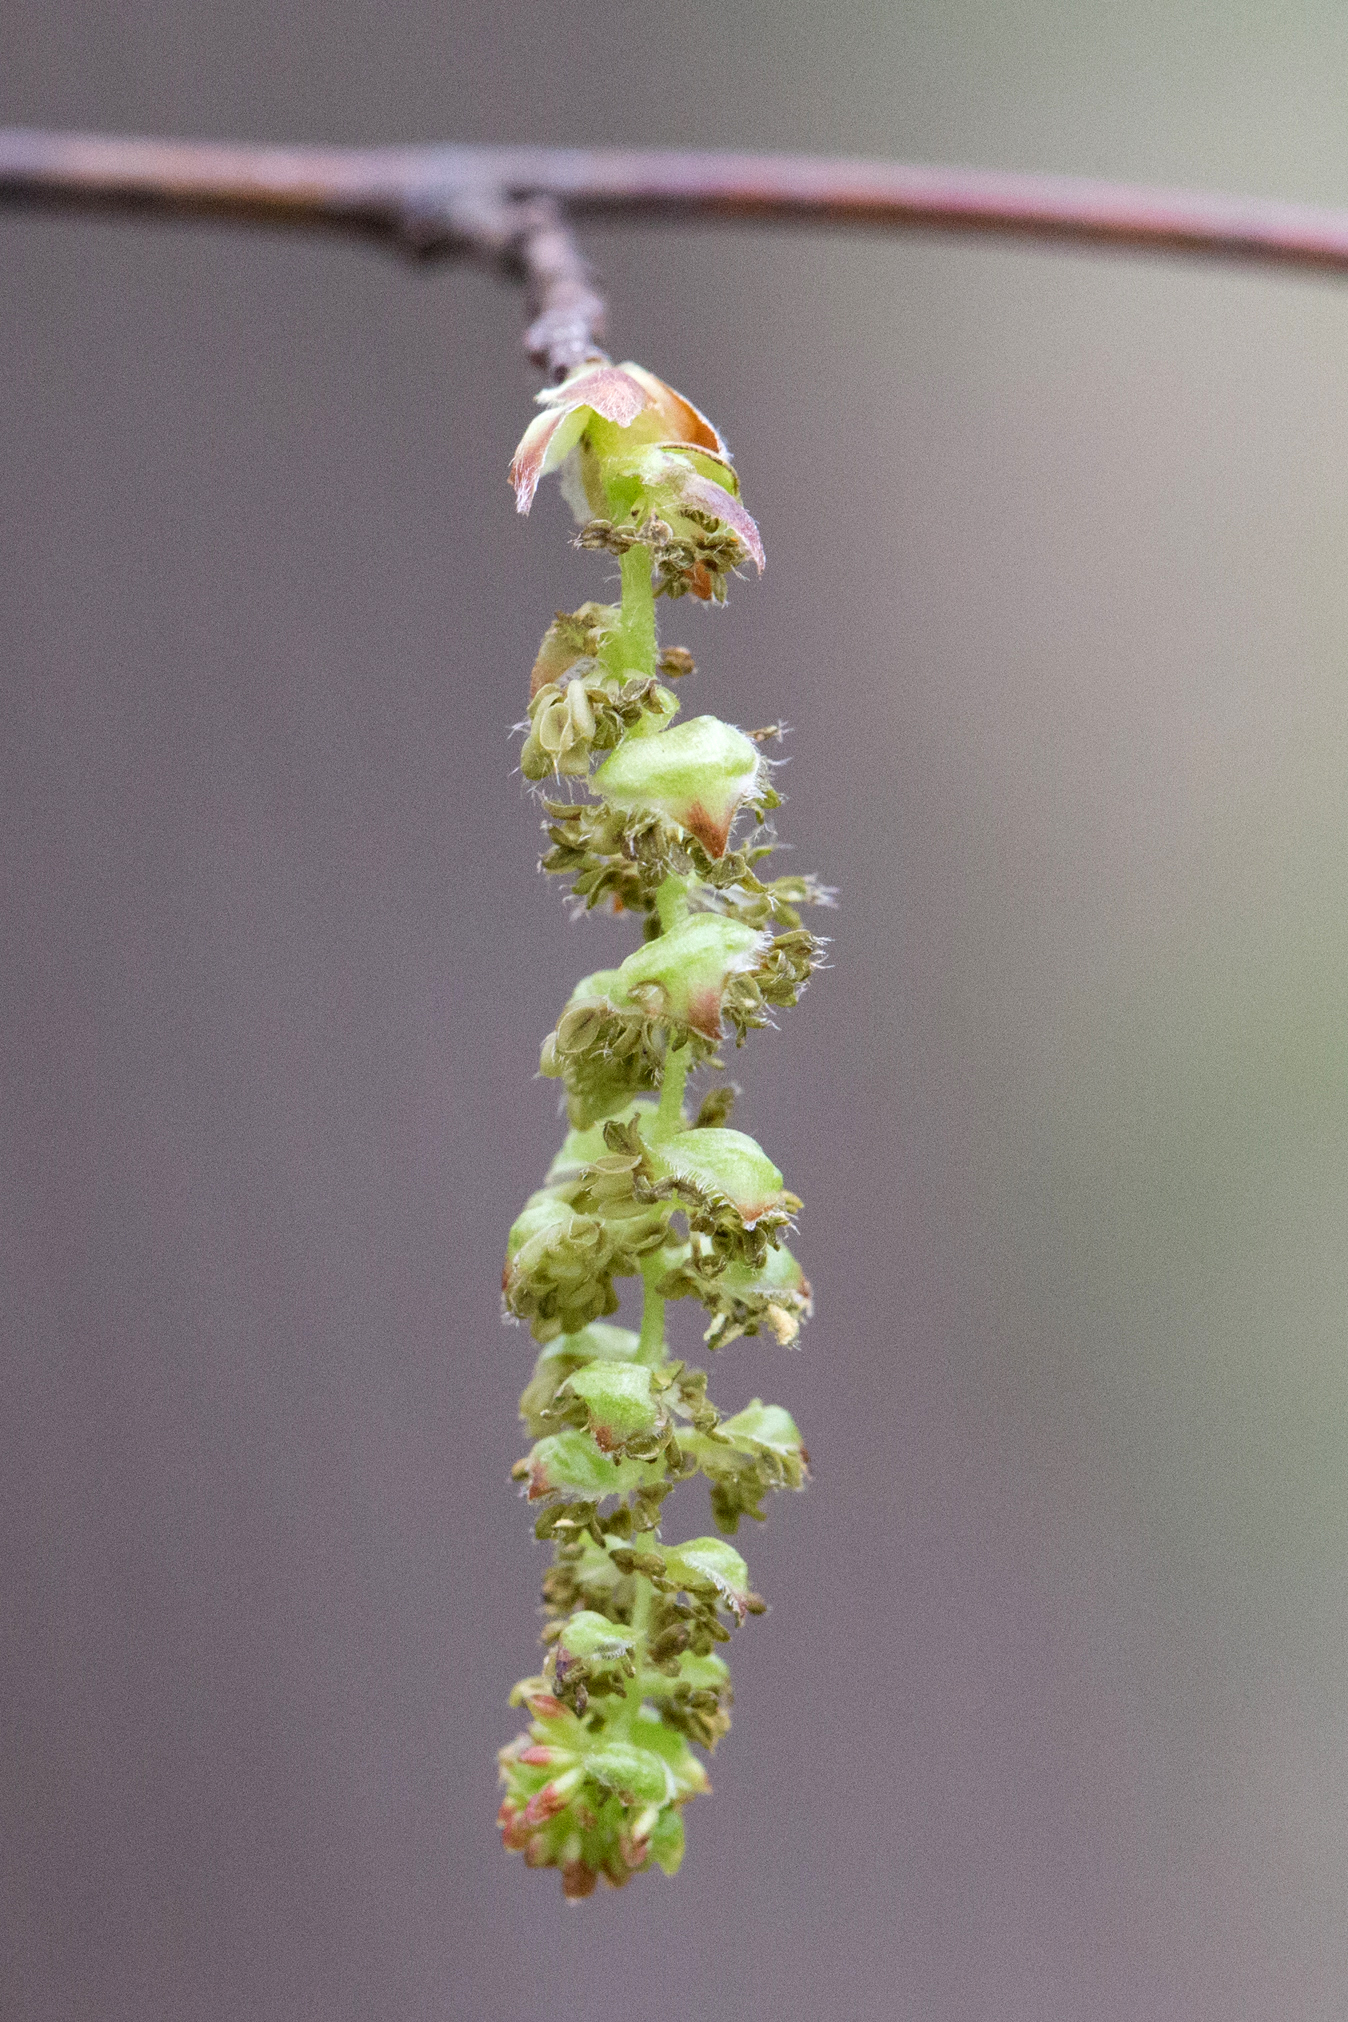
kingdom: Plantae
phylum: Tracheophyta
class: Magnoliopsida
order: Fagales
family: Betulaceae
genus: Carpinus
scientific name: Carpinus caroliniana
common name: American hornbeam
